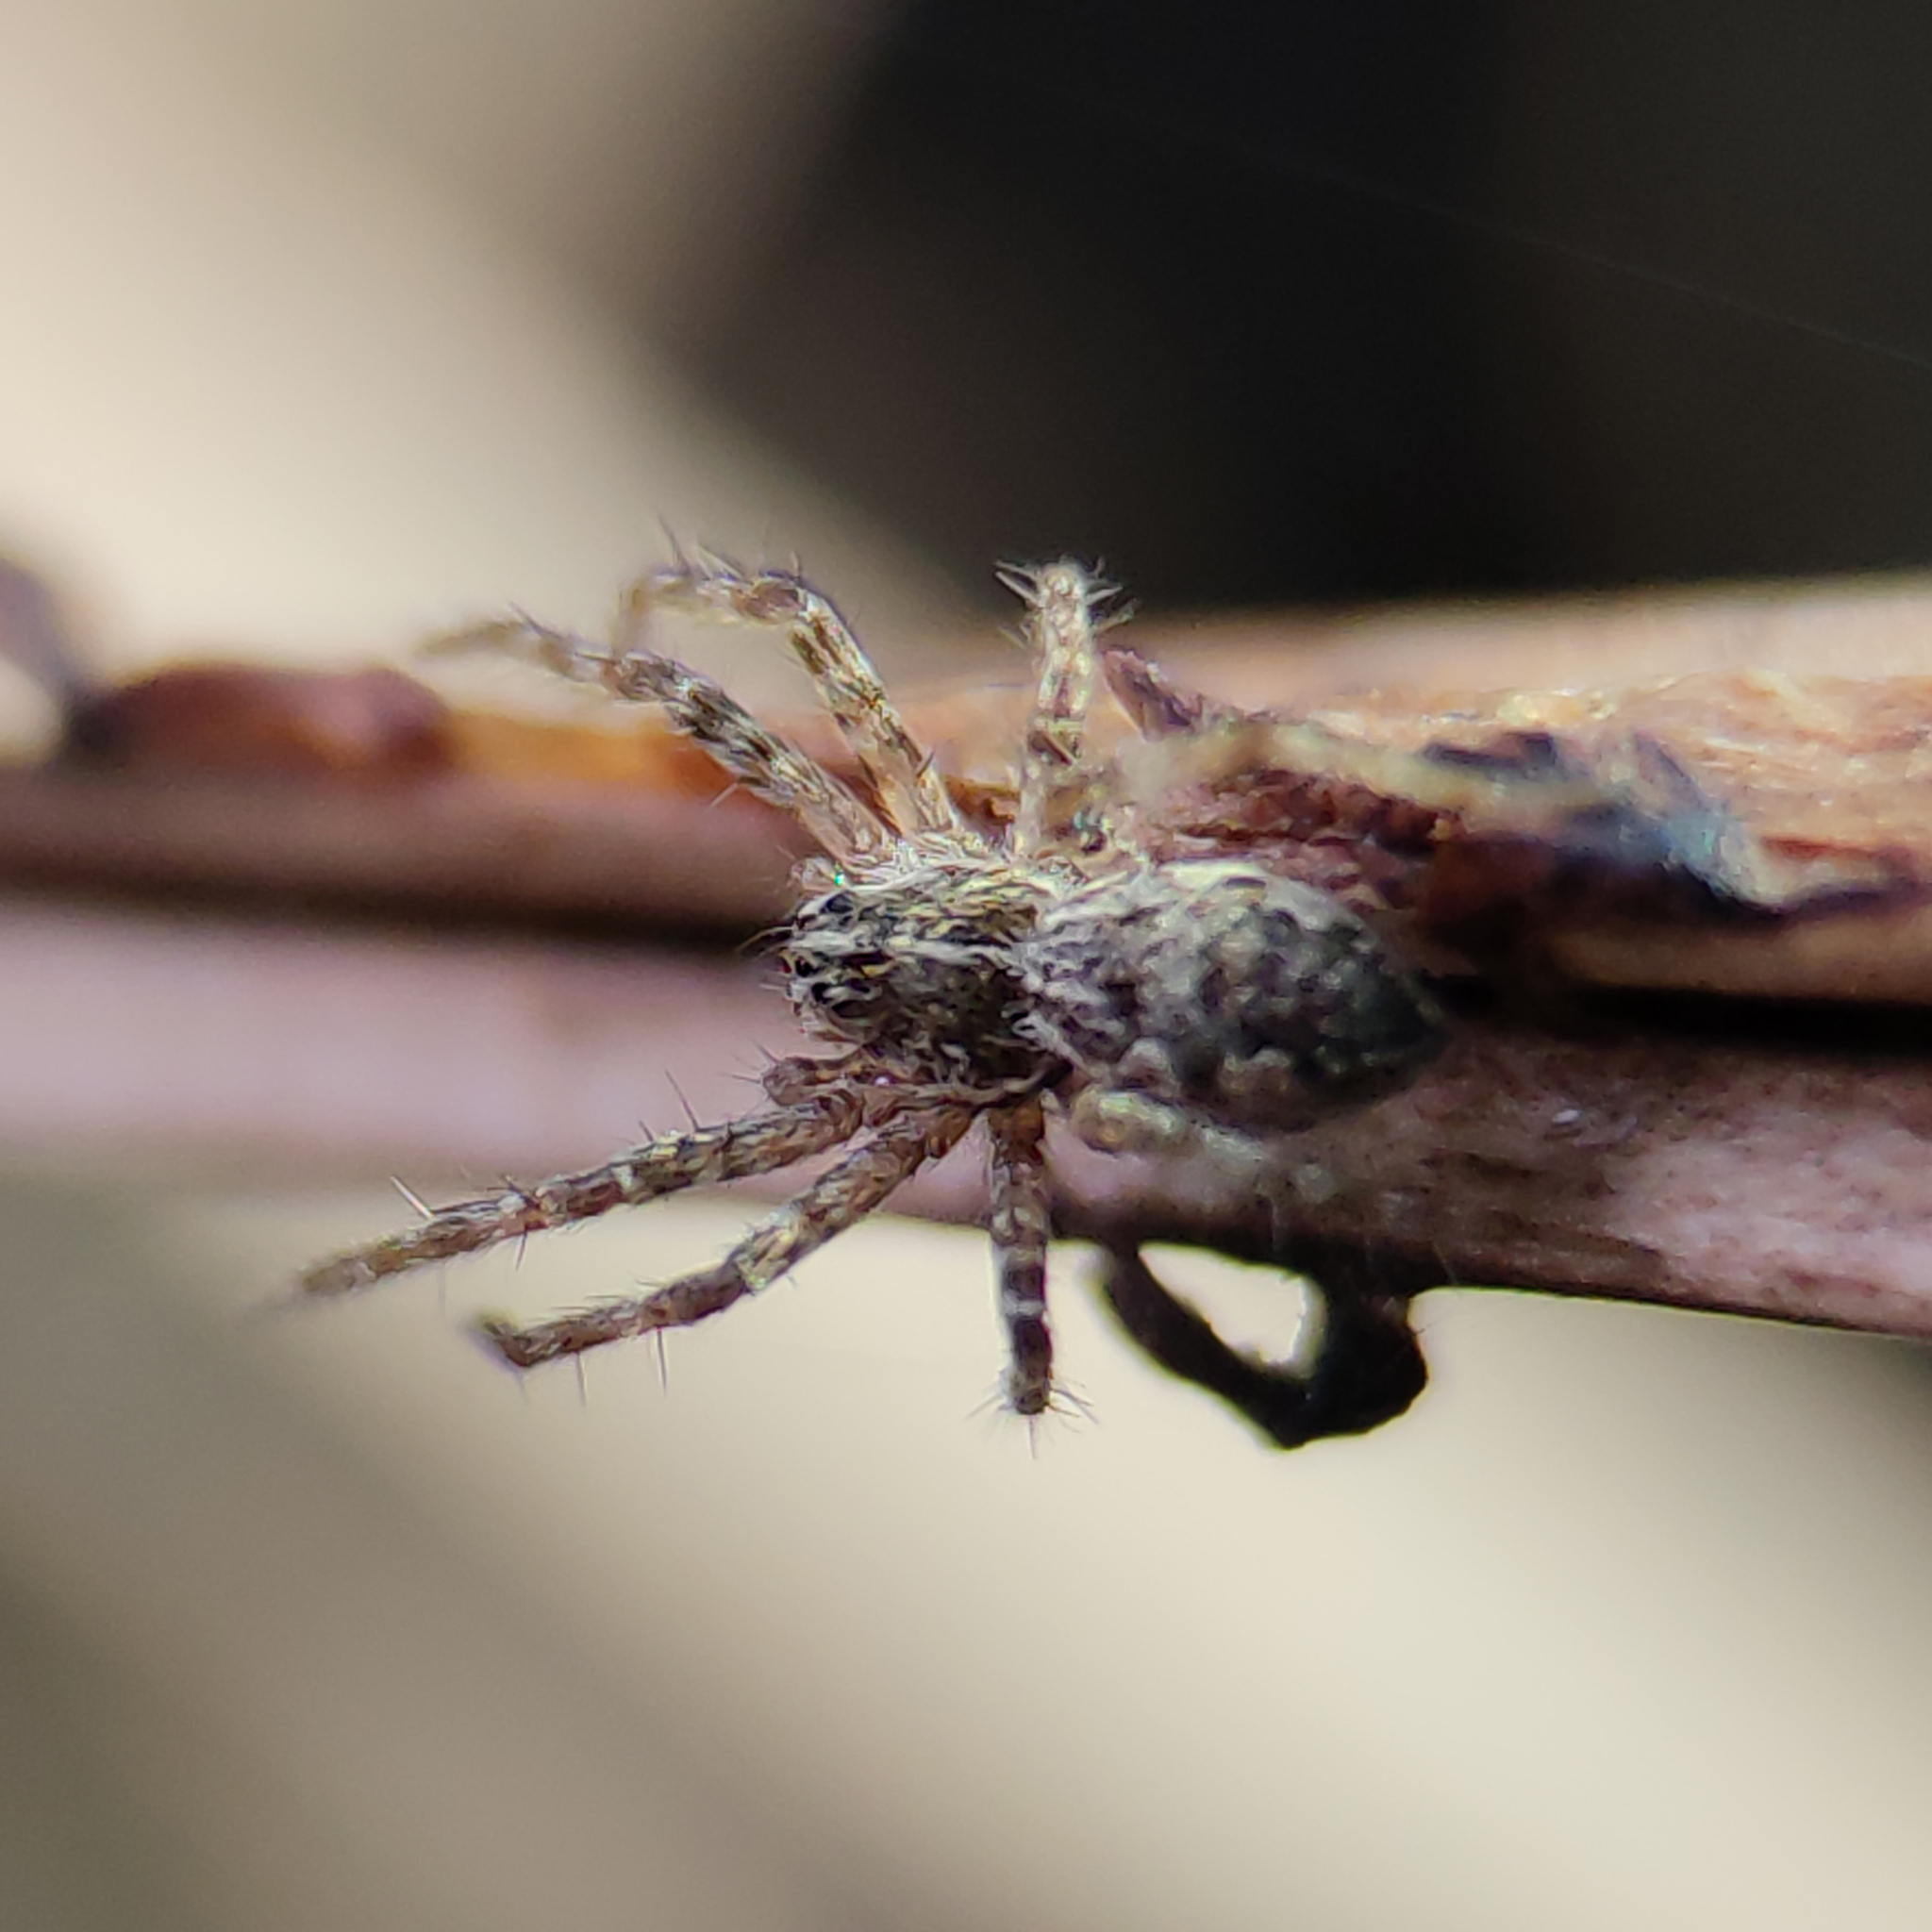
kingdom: Animalia
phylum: Arthropoda
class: Arachnida
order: Araneae
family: Pisauridae
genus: Pisaura
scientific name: Pisaura
